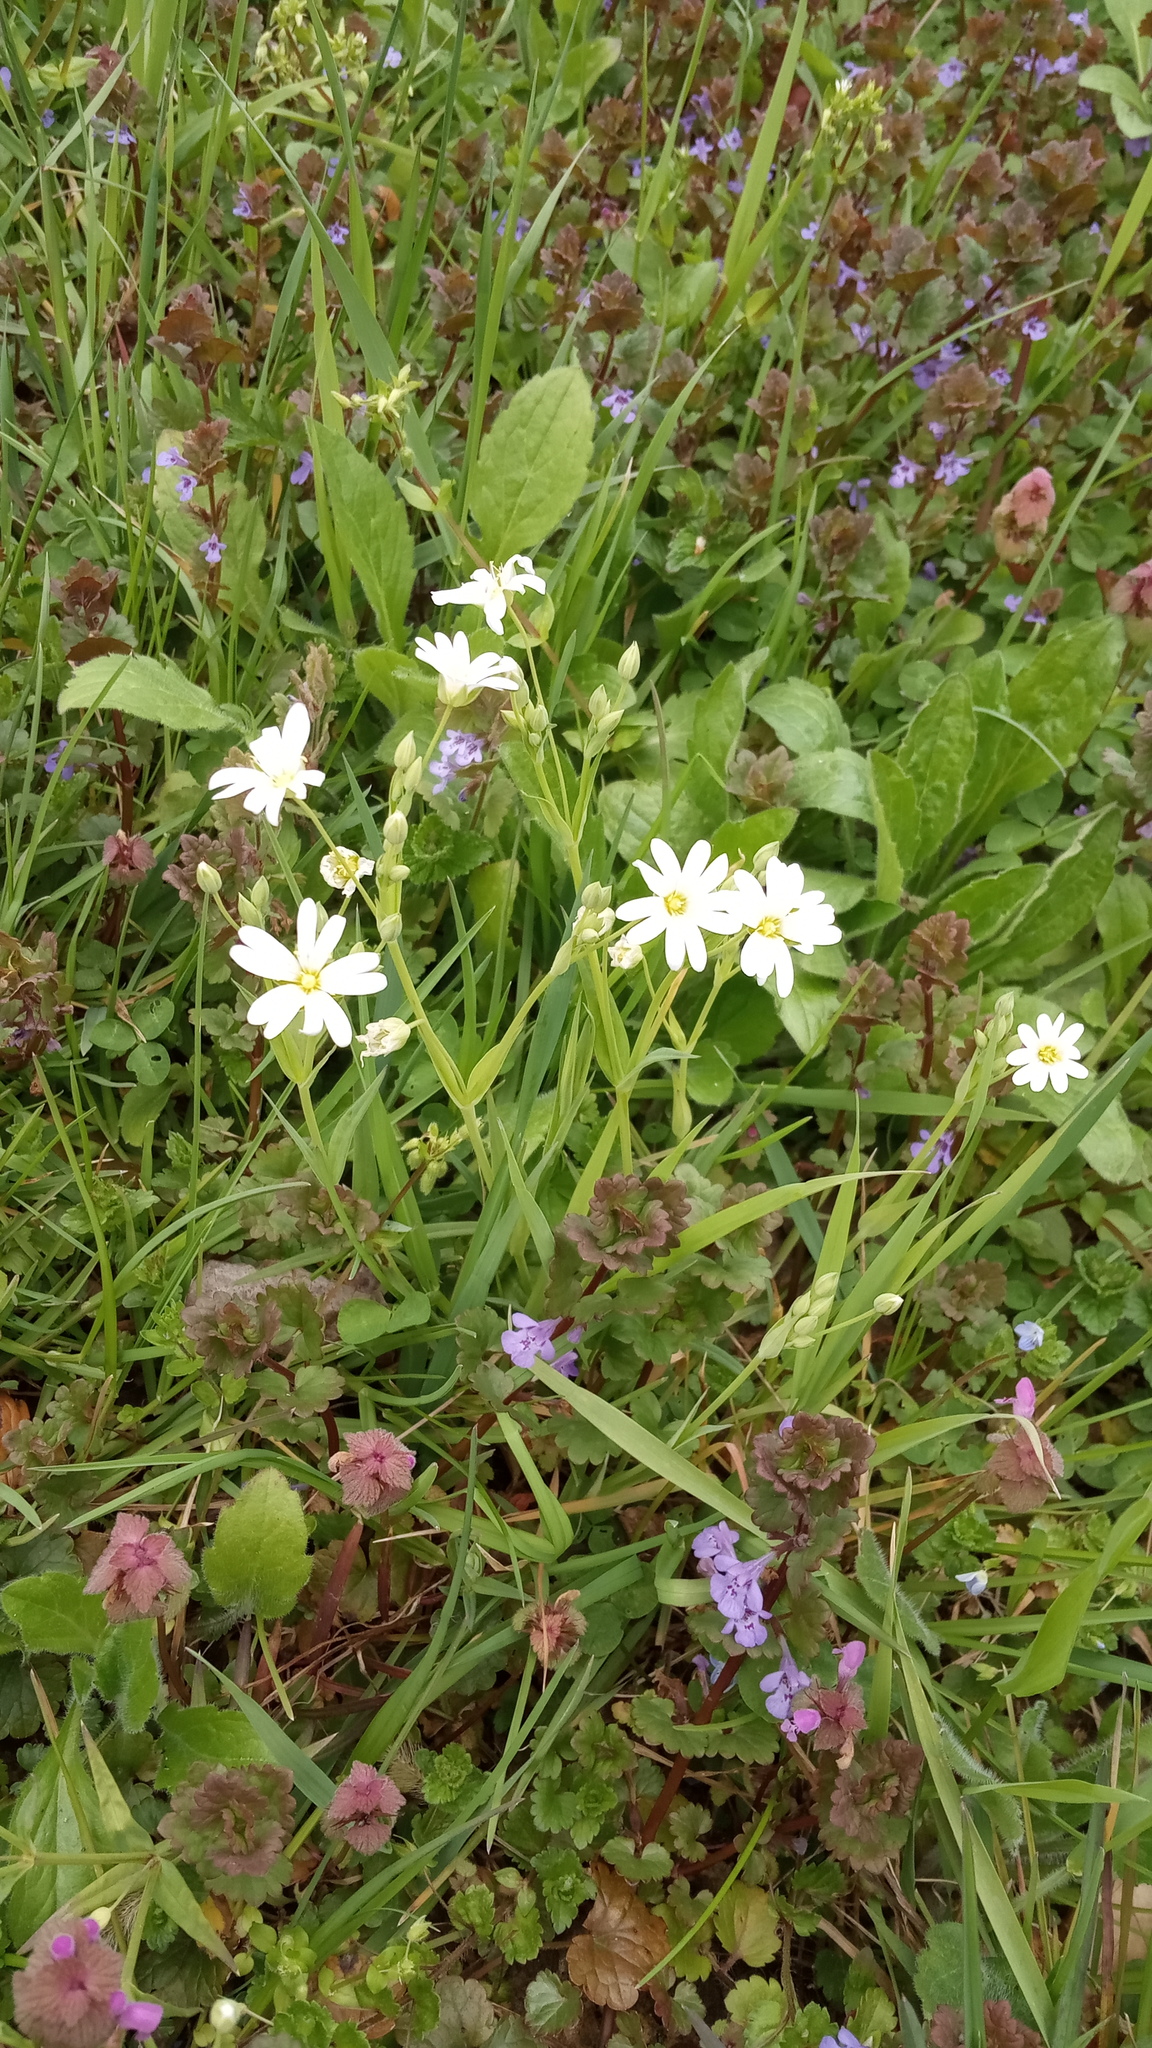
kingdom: Plantae
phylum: Tracheophyta
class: Magnoliopsida
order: Caryophyllales
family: Caryophyllaceae
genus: Rabelera
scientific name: Rabelera holostea
